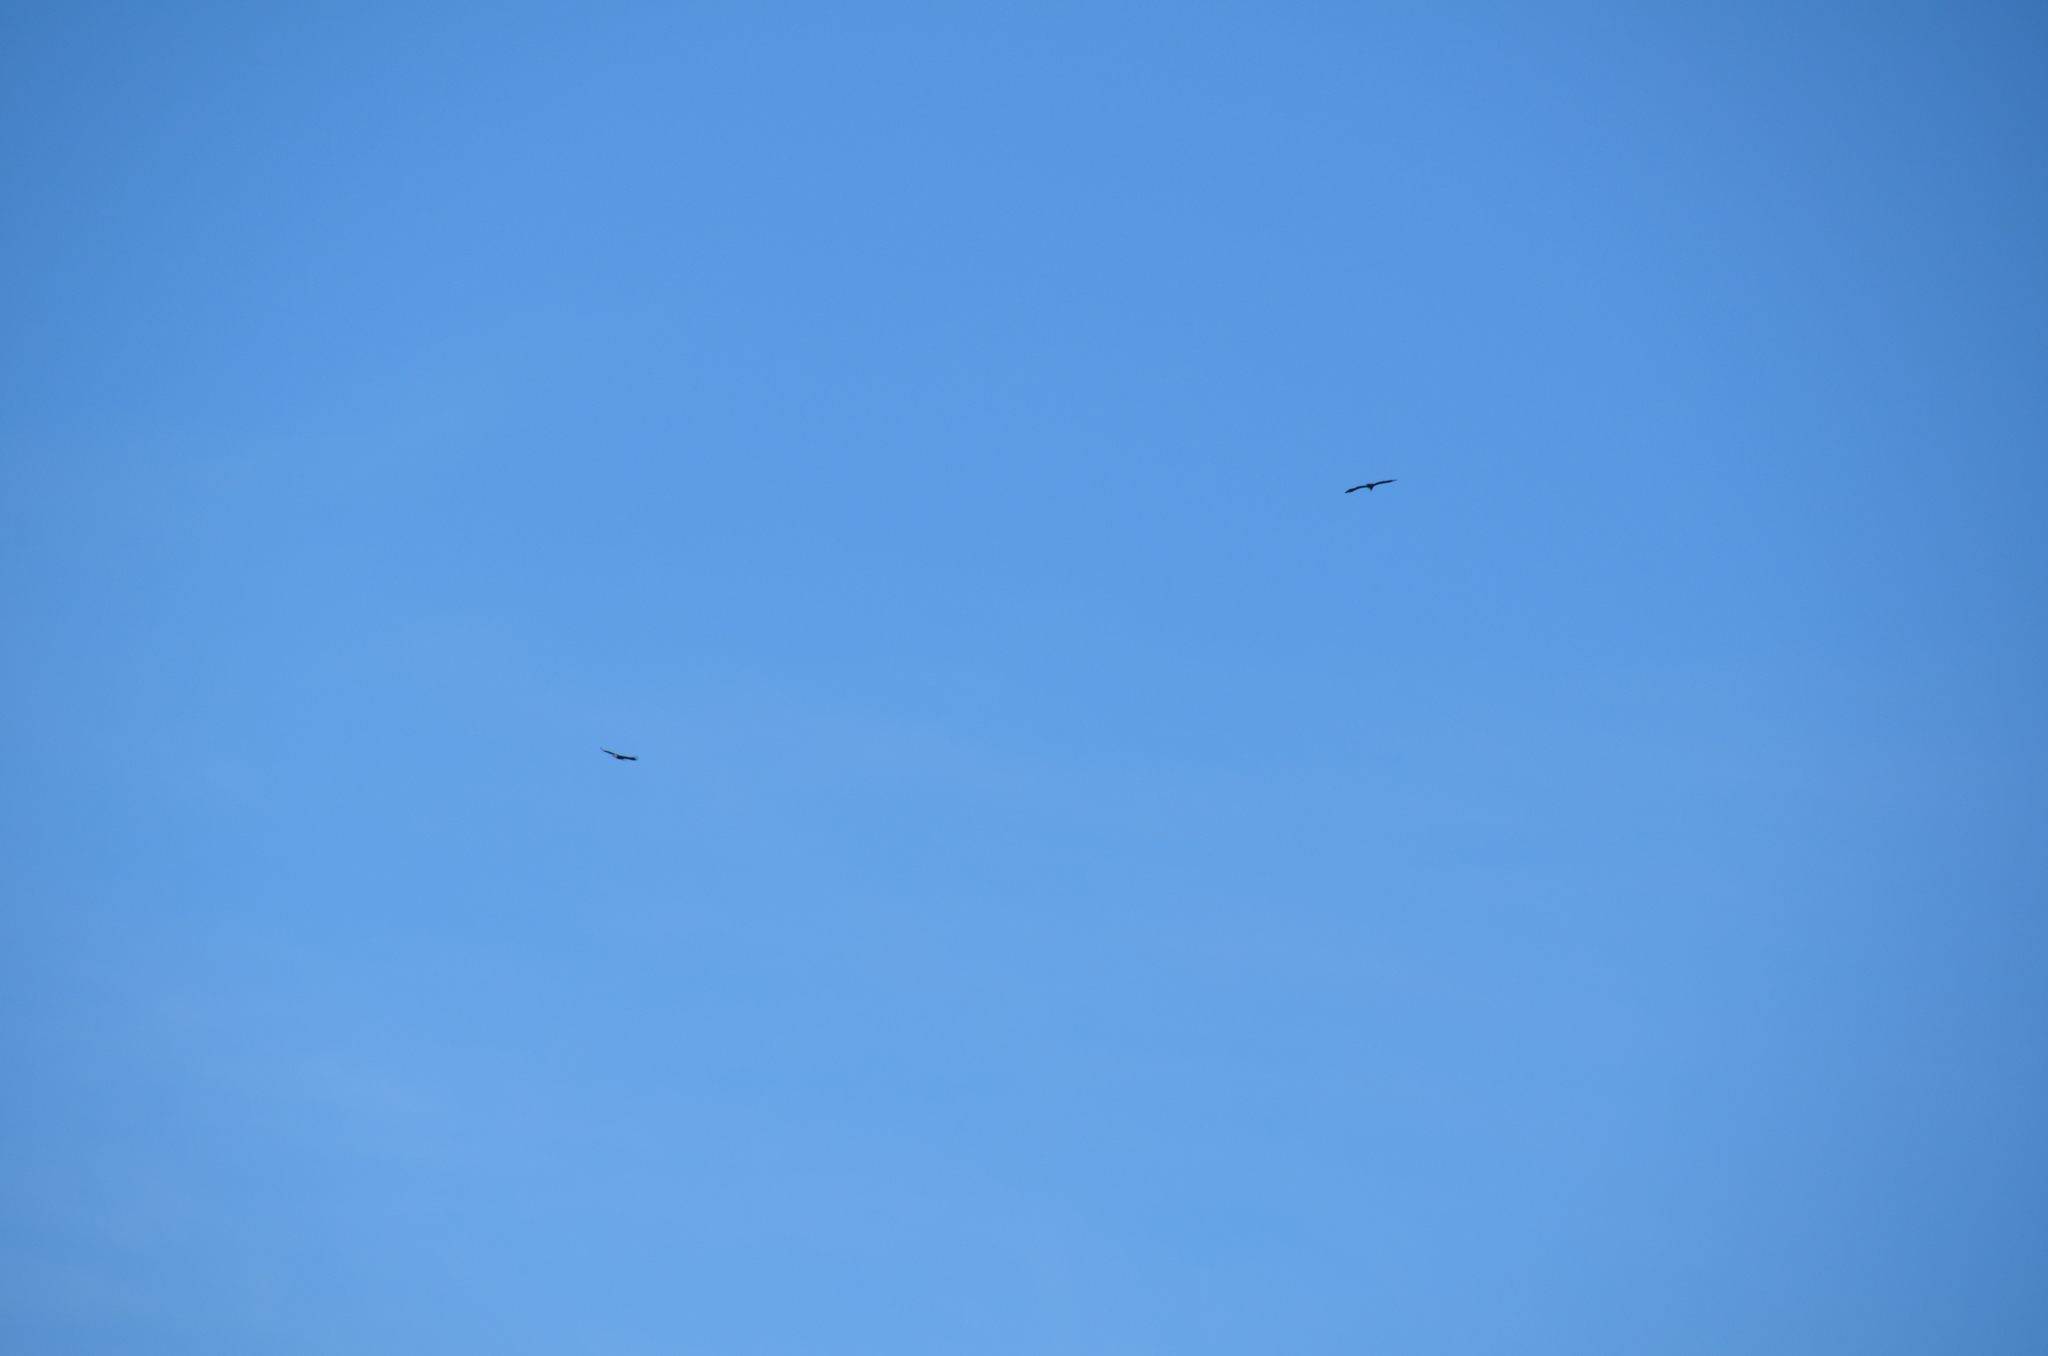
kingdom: Animalia
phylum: Chordata
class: Aves
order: Accipitriformes
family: Accipitridae
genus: Haliaeetus
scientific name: Haliaeetus leucocephalus
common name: Bald eagle
